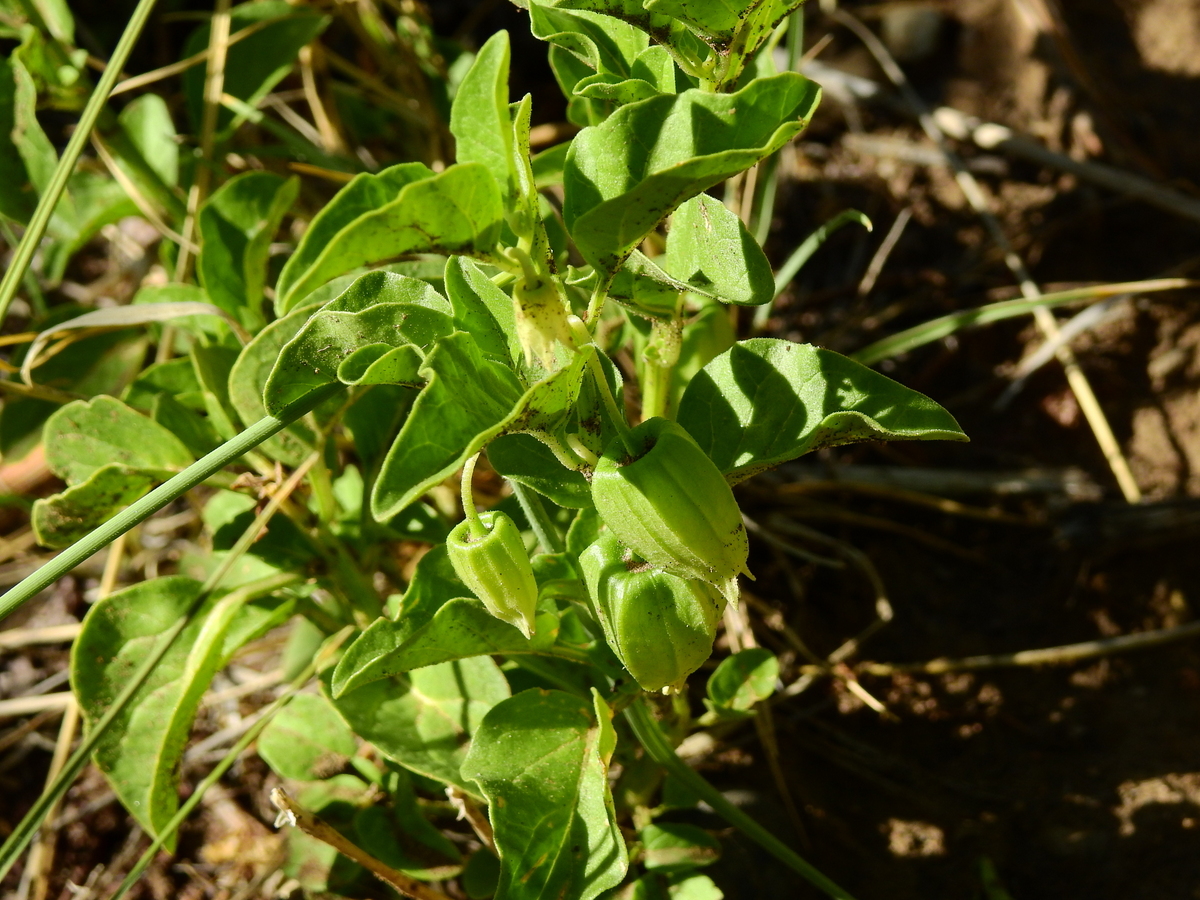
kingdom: Plantae
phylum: Tracheophyta
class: Magnoliopsida
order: Solanales
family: Solanaceae
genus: Physalis
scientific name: Physalis viscosa
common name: Stellate ground-cherry
